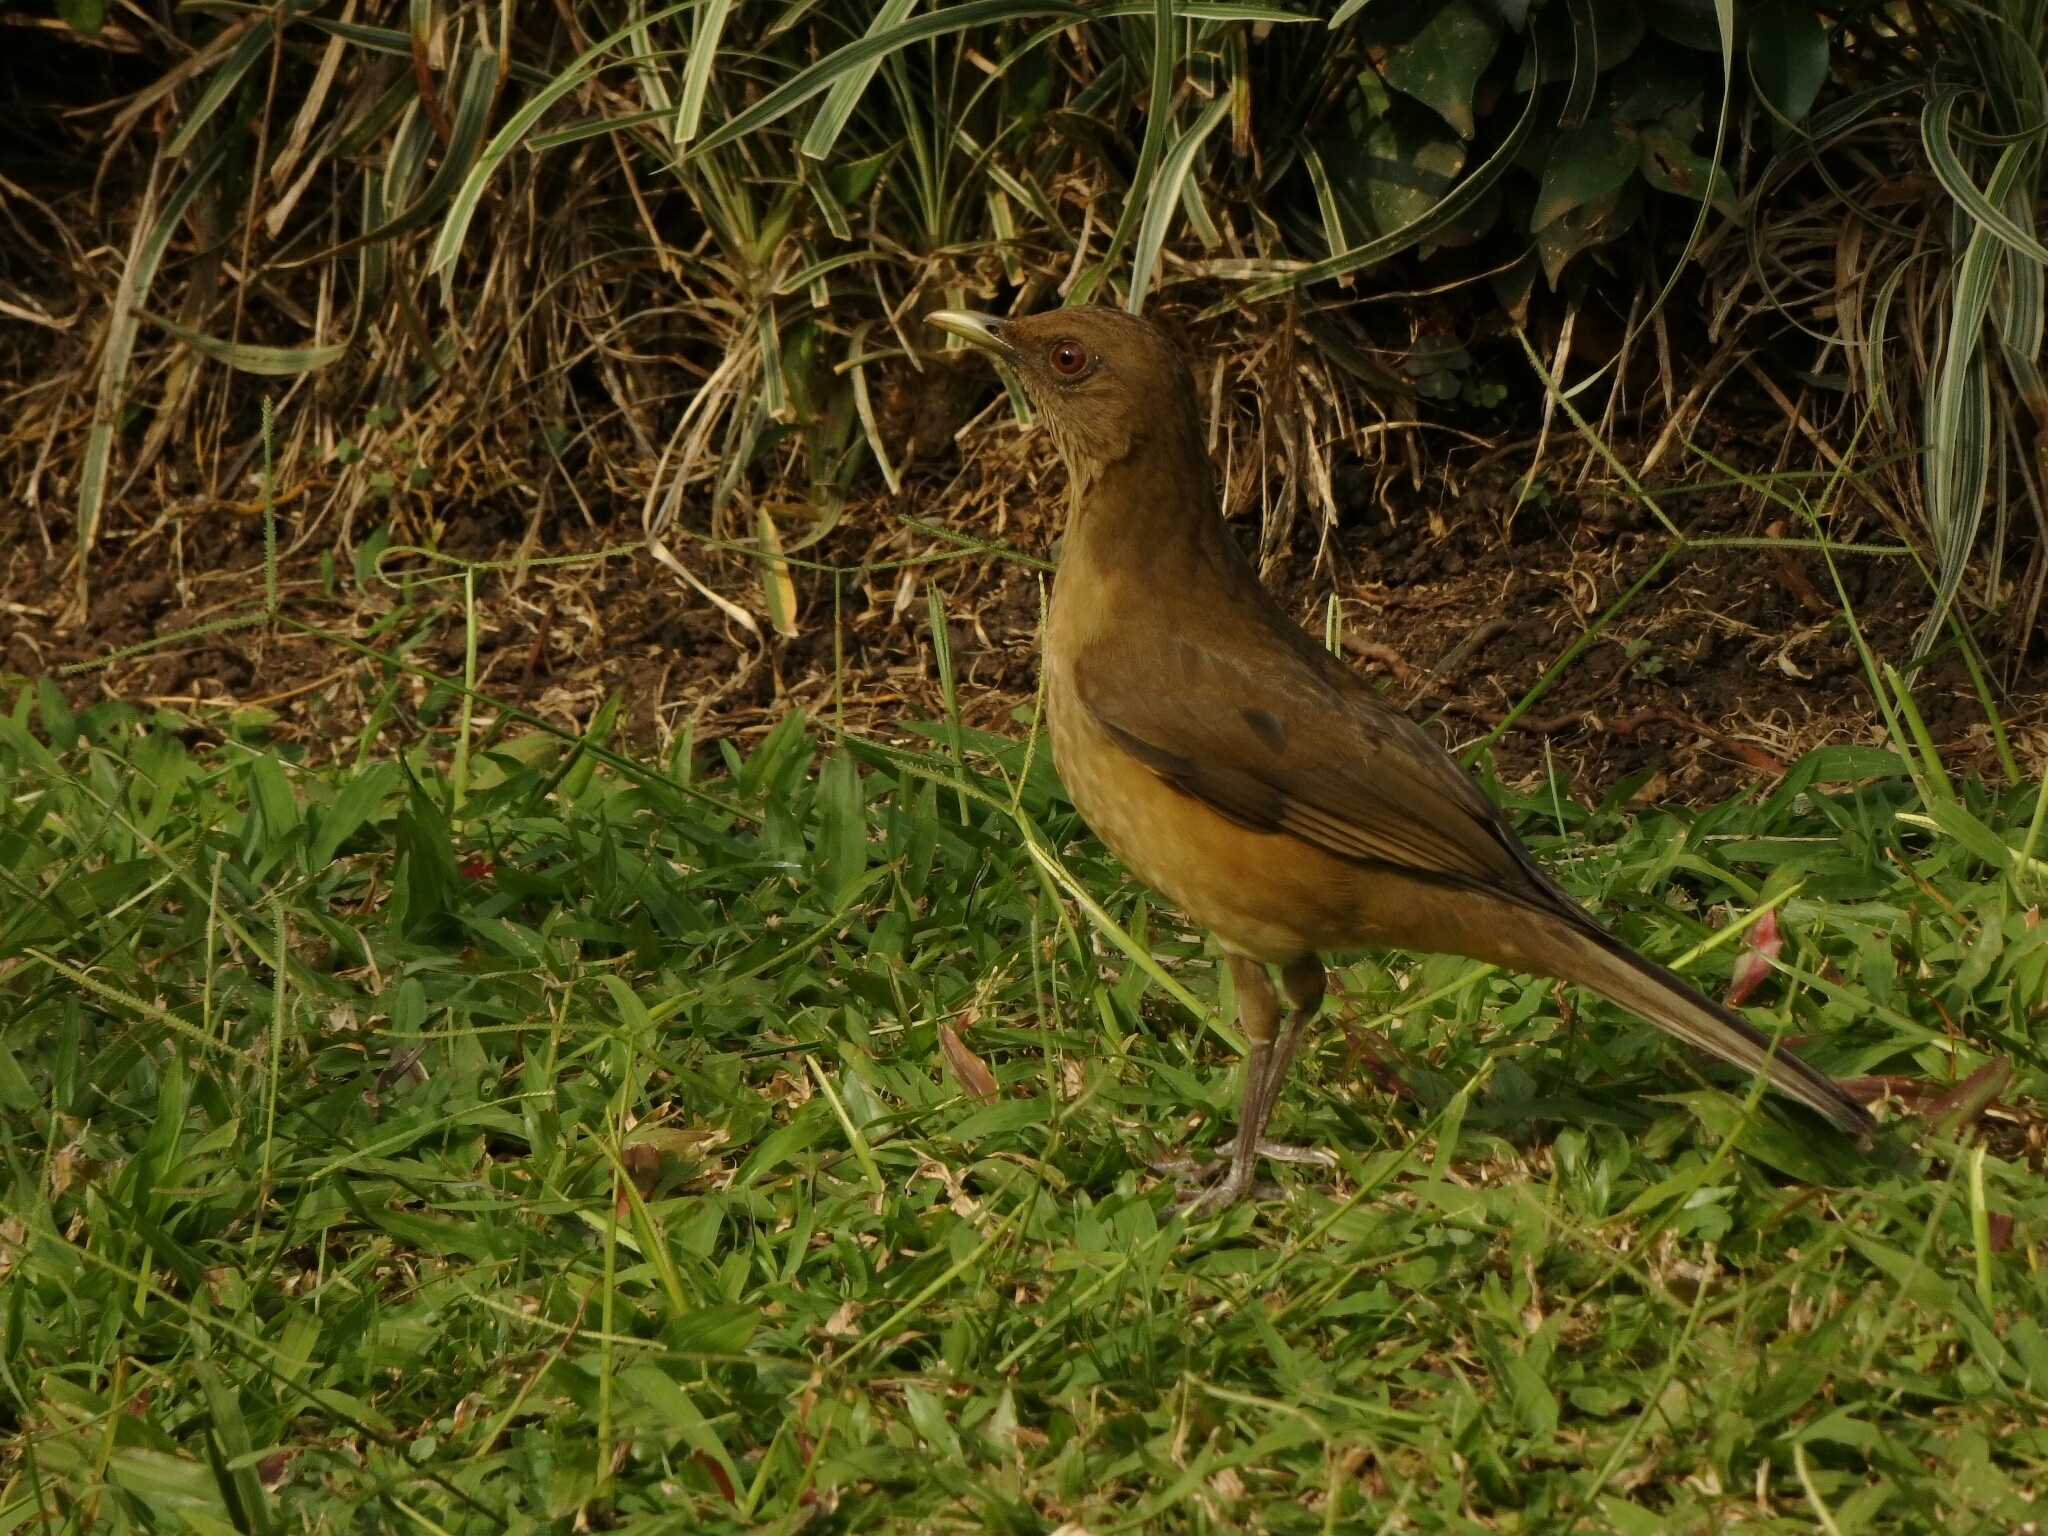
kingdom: Animalia
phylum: Chordata
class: Aves
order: Passeriformes
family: Turdidae
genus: Turdus
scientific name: Turdus grayi
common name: Clay-colored thrush
